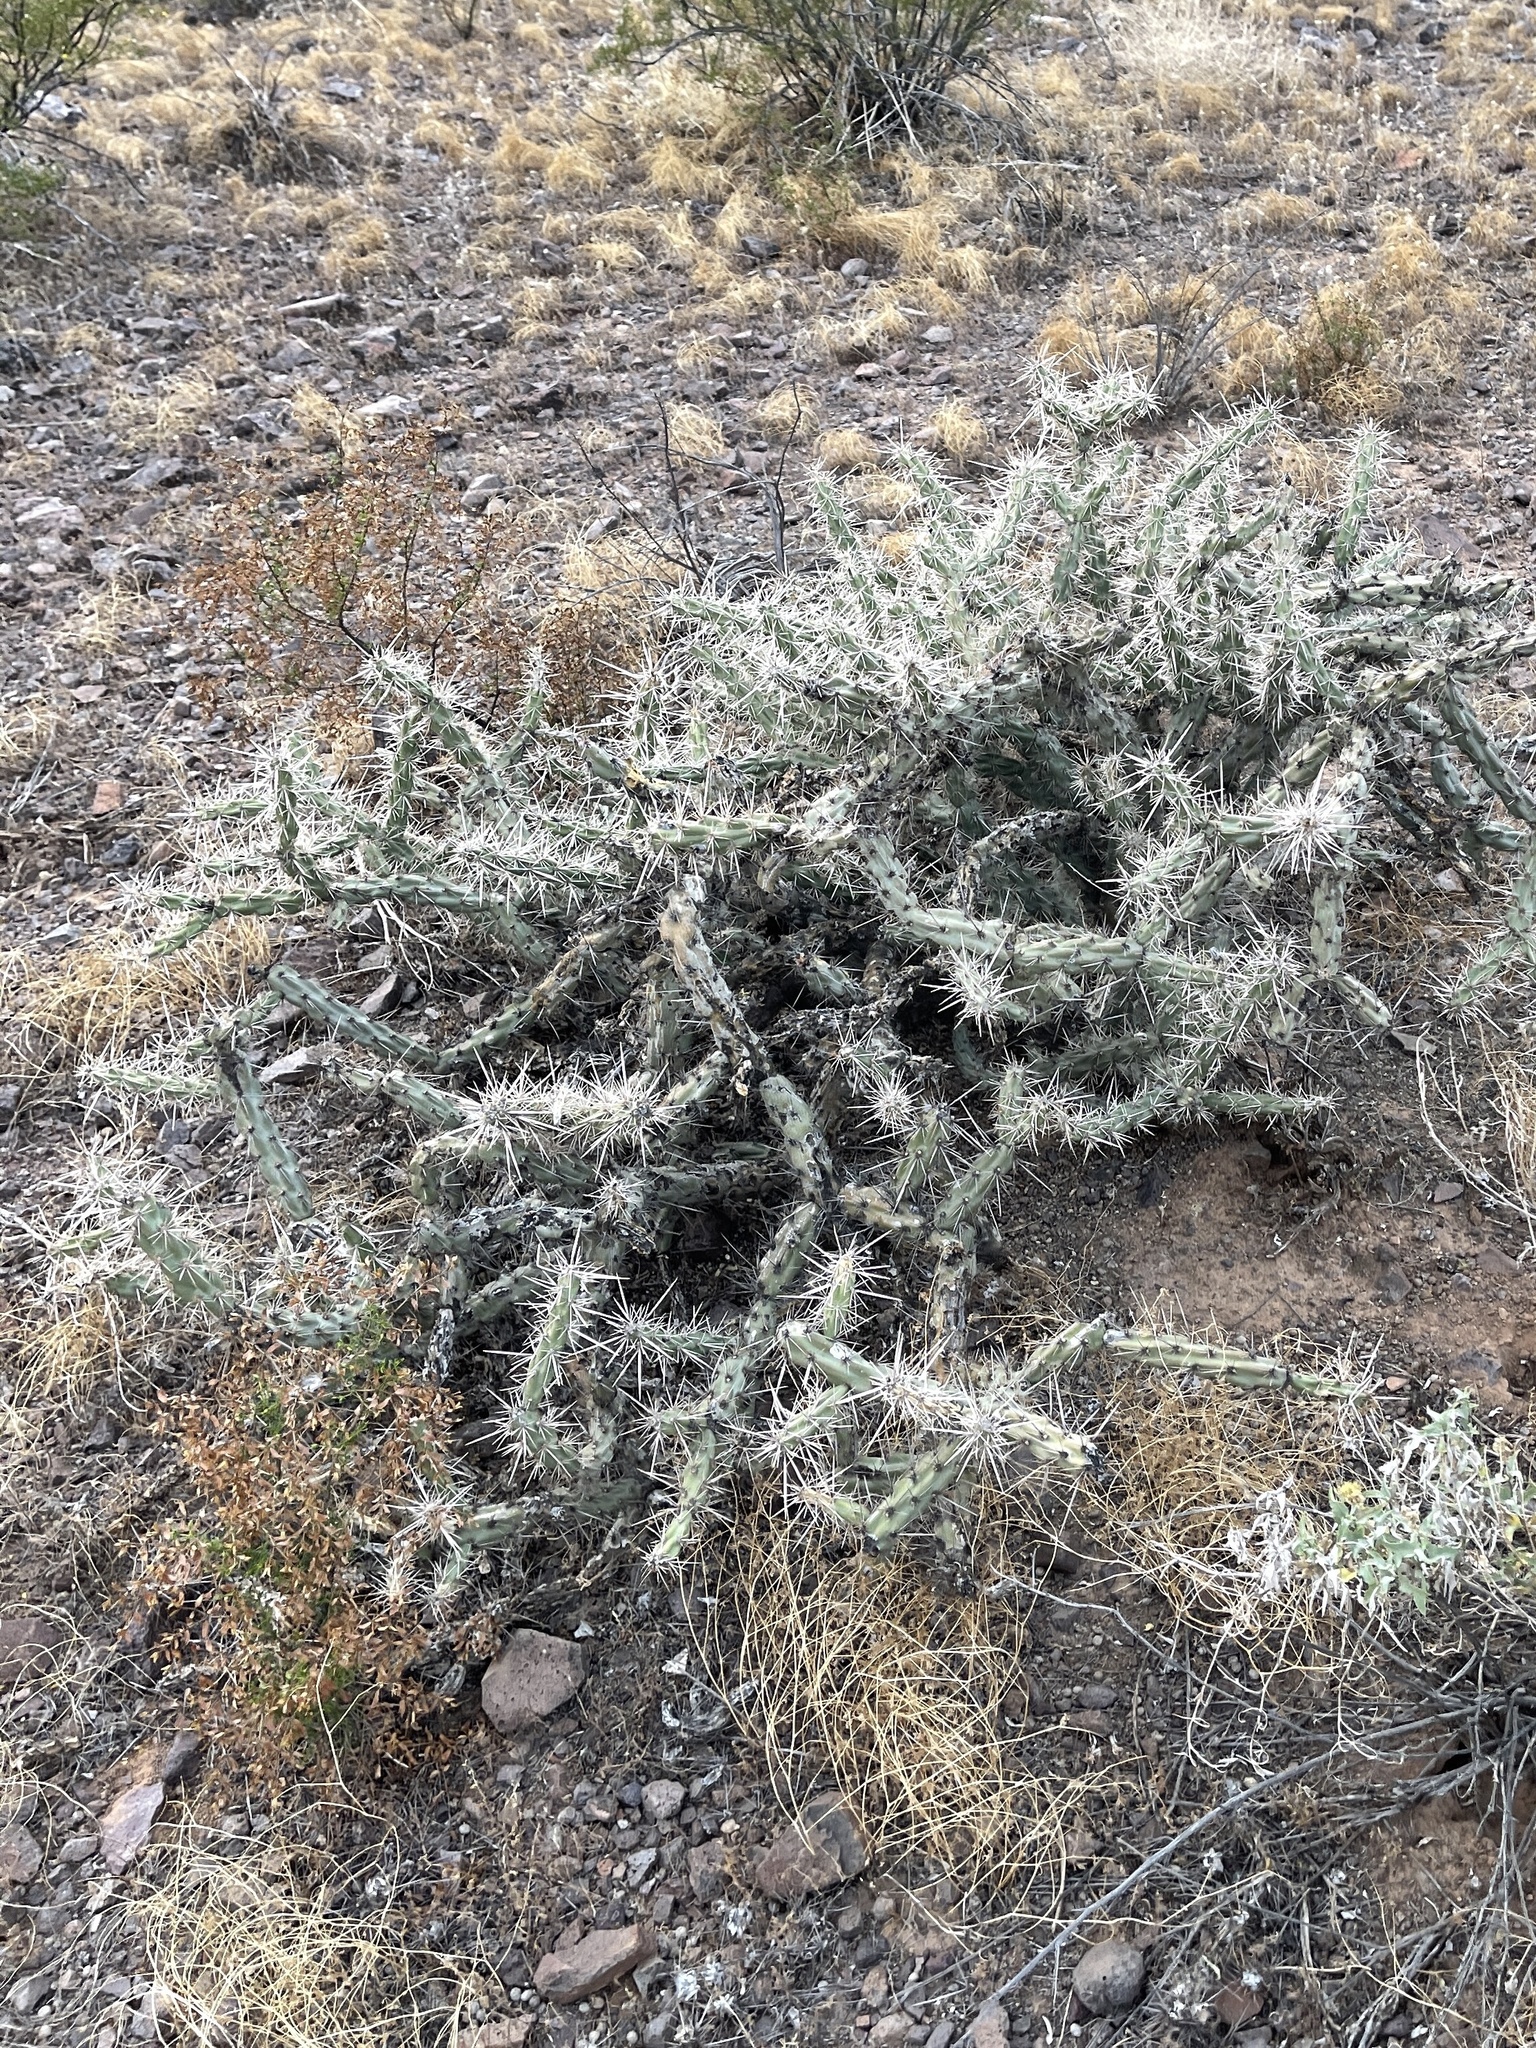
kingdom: Plantae
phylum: Tracheophyta
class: Magnoliopsida
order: Caryophyllales
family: Cactaceae
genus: Cylindropuntia
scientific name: Cylindropuntia acanthocarpa
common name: Buckhorn cholla
